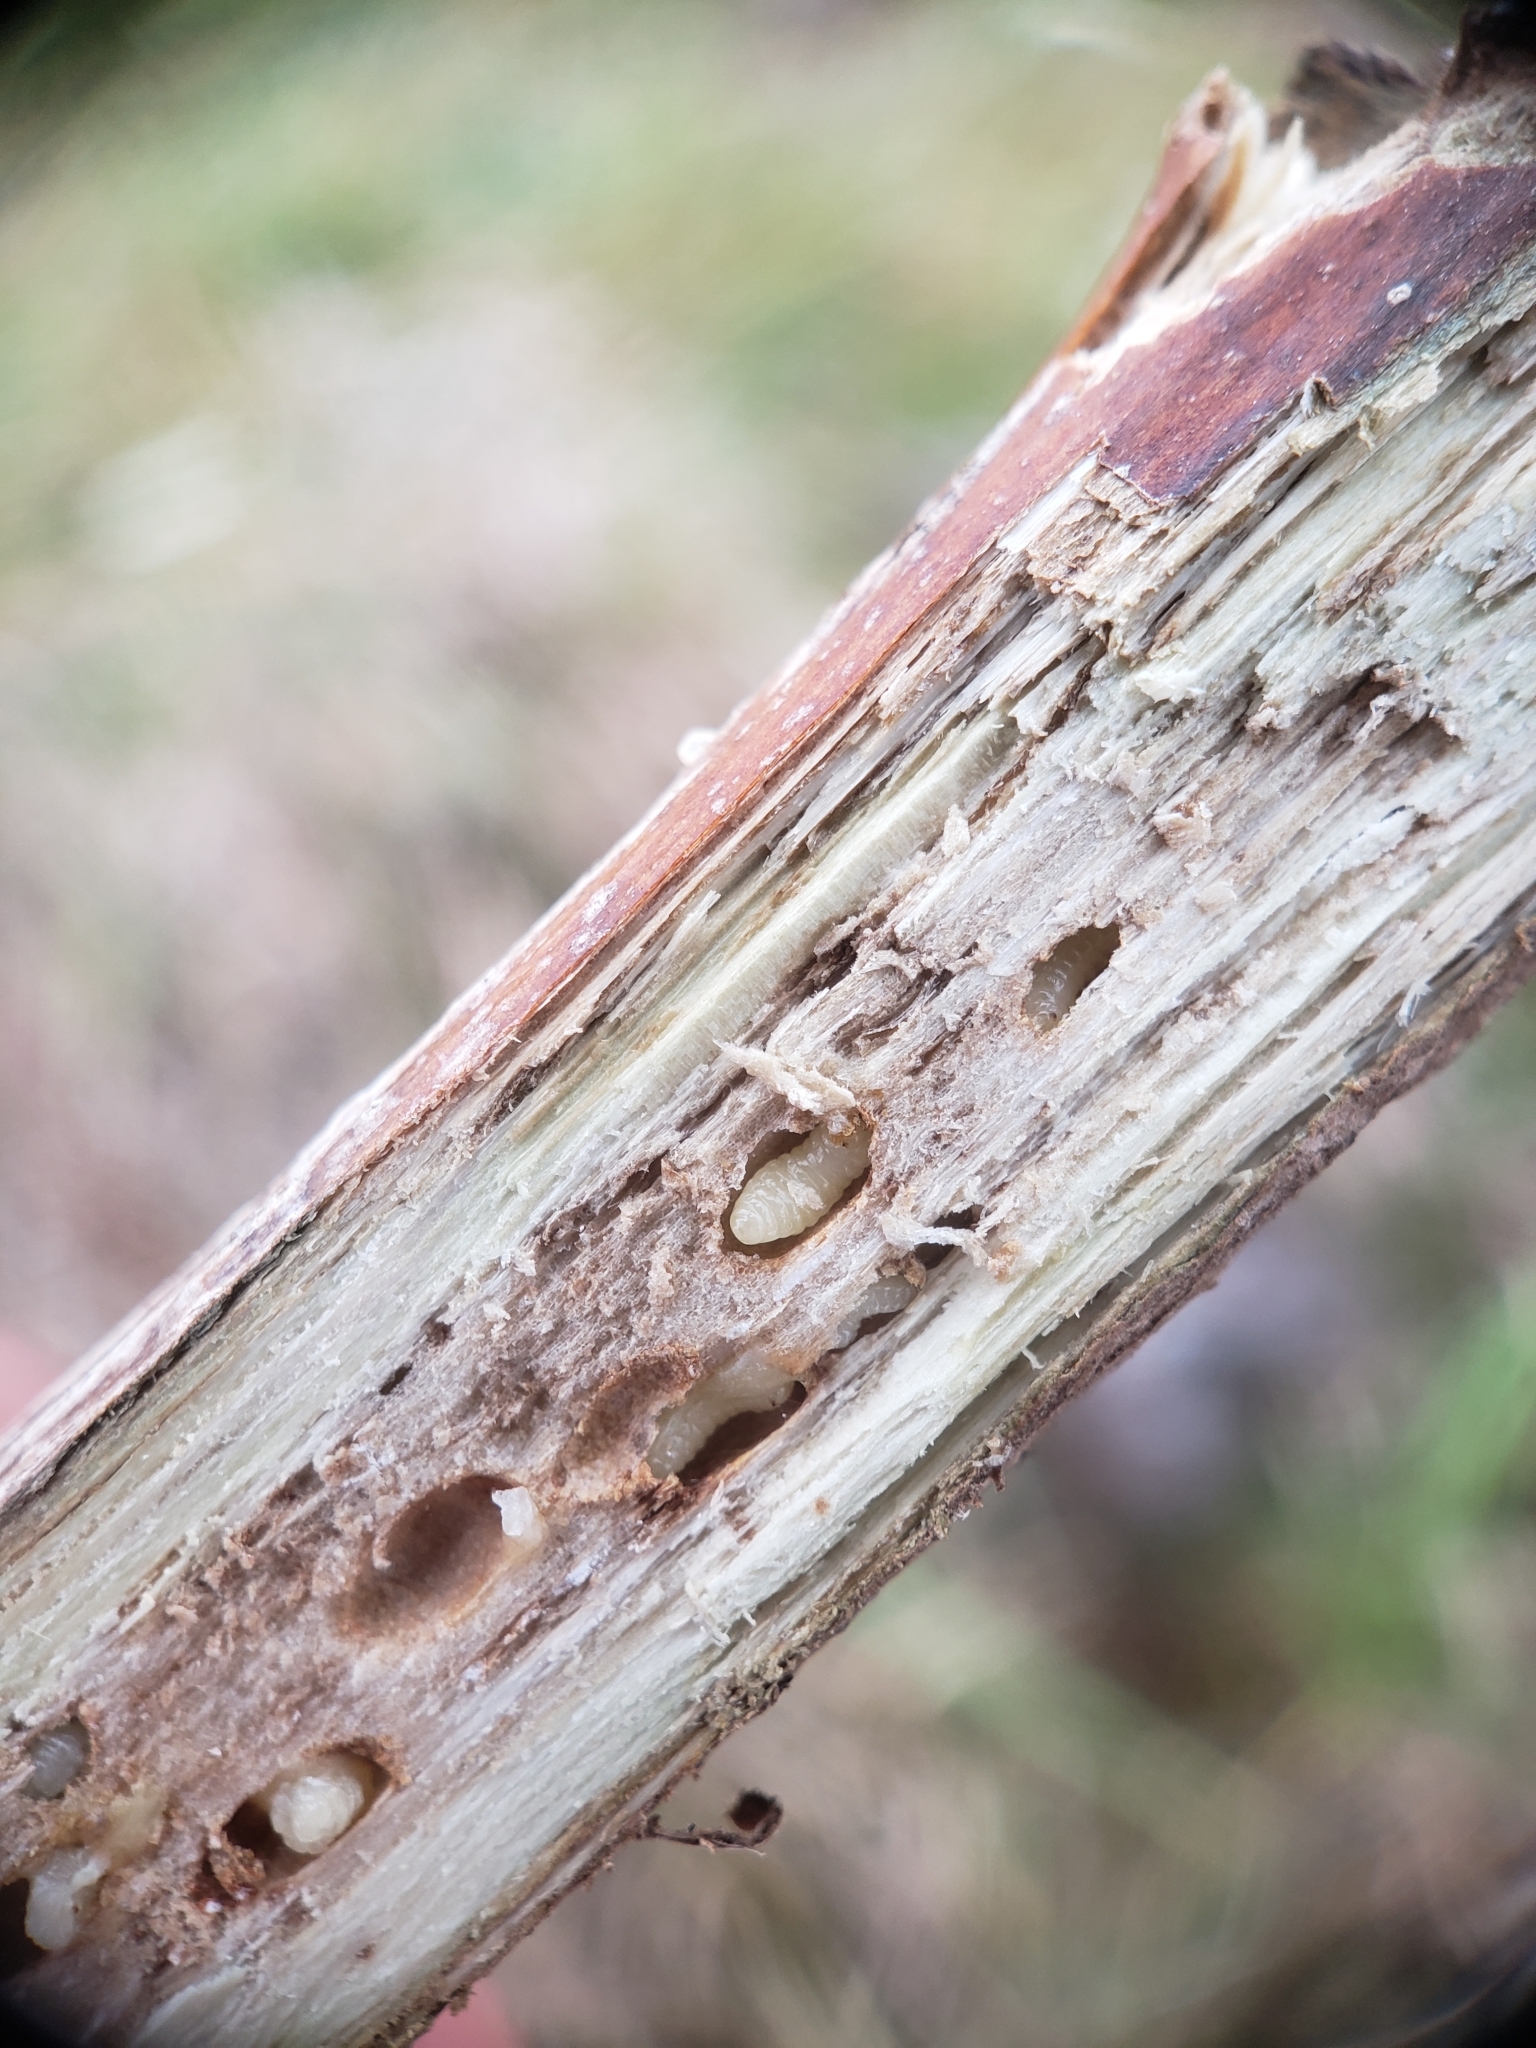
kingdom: Animalia
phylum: Arthropoda
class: Insecta
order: Hymenoptera
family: Cynipidae
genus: Antistrophus
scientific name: Antistrophus
